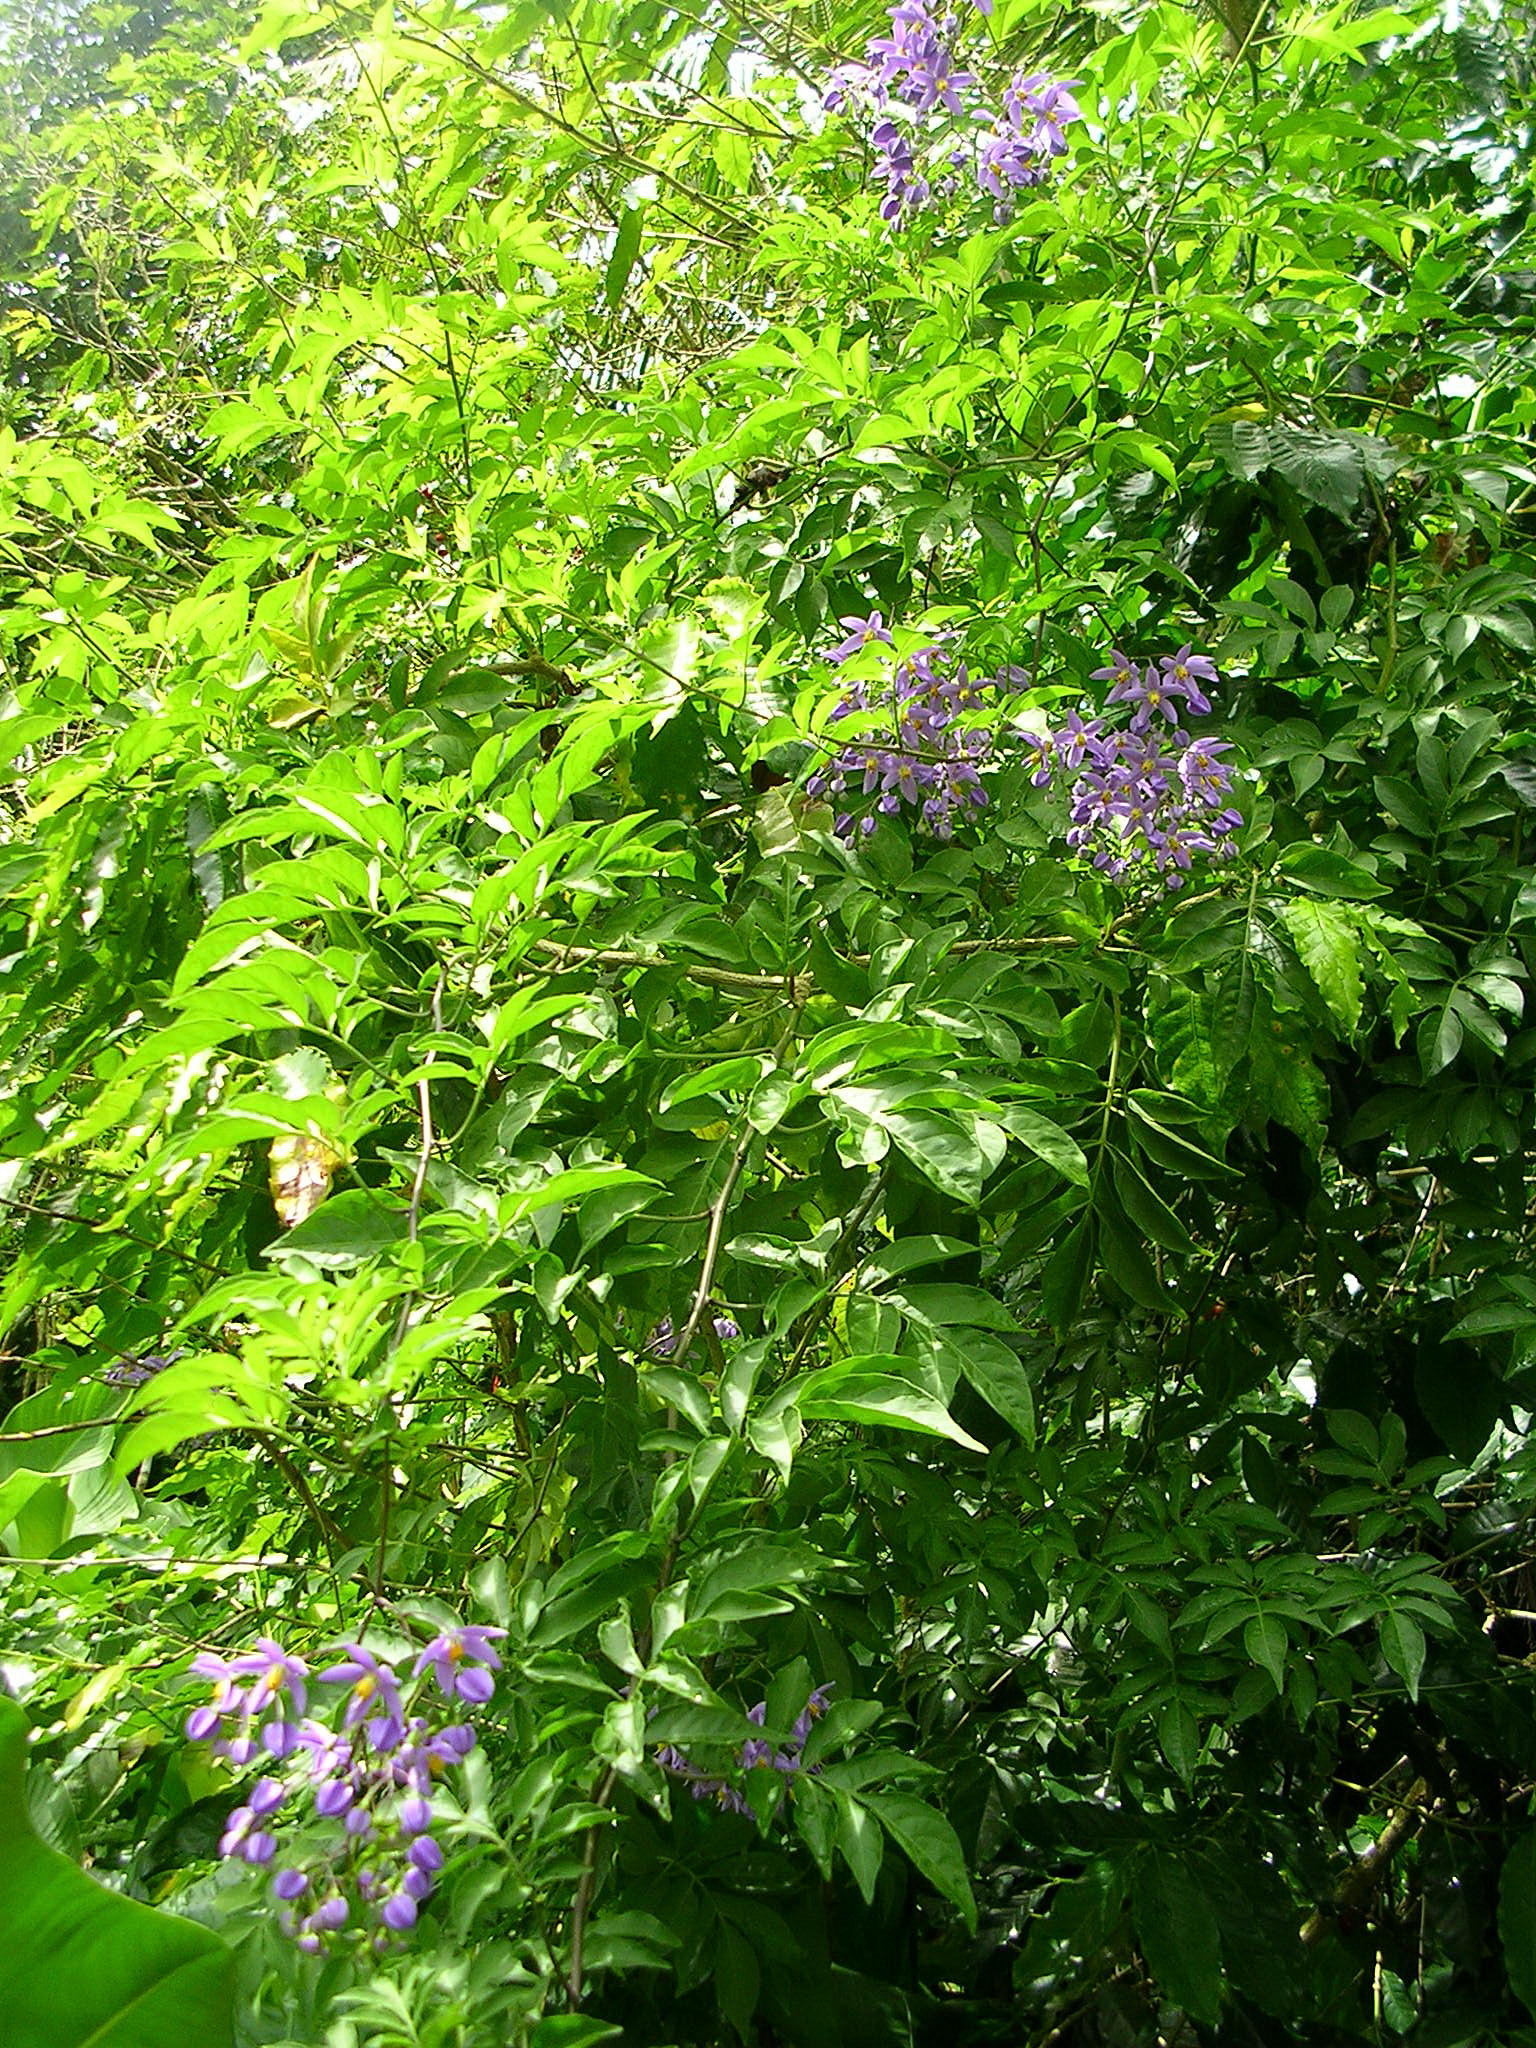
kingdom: Plantae
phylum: Tracheophyta
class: Magnoliopsida
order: Solanales
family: Solanaceae
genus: Solanum
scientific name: Solanum seaforthianum
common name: Brazilian nightshade
